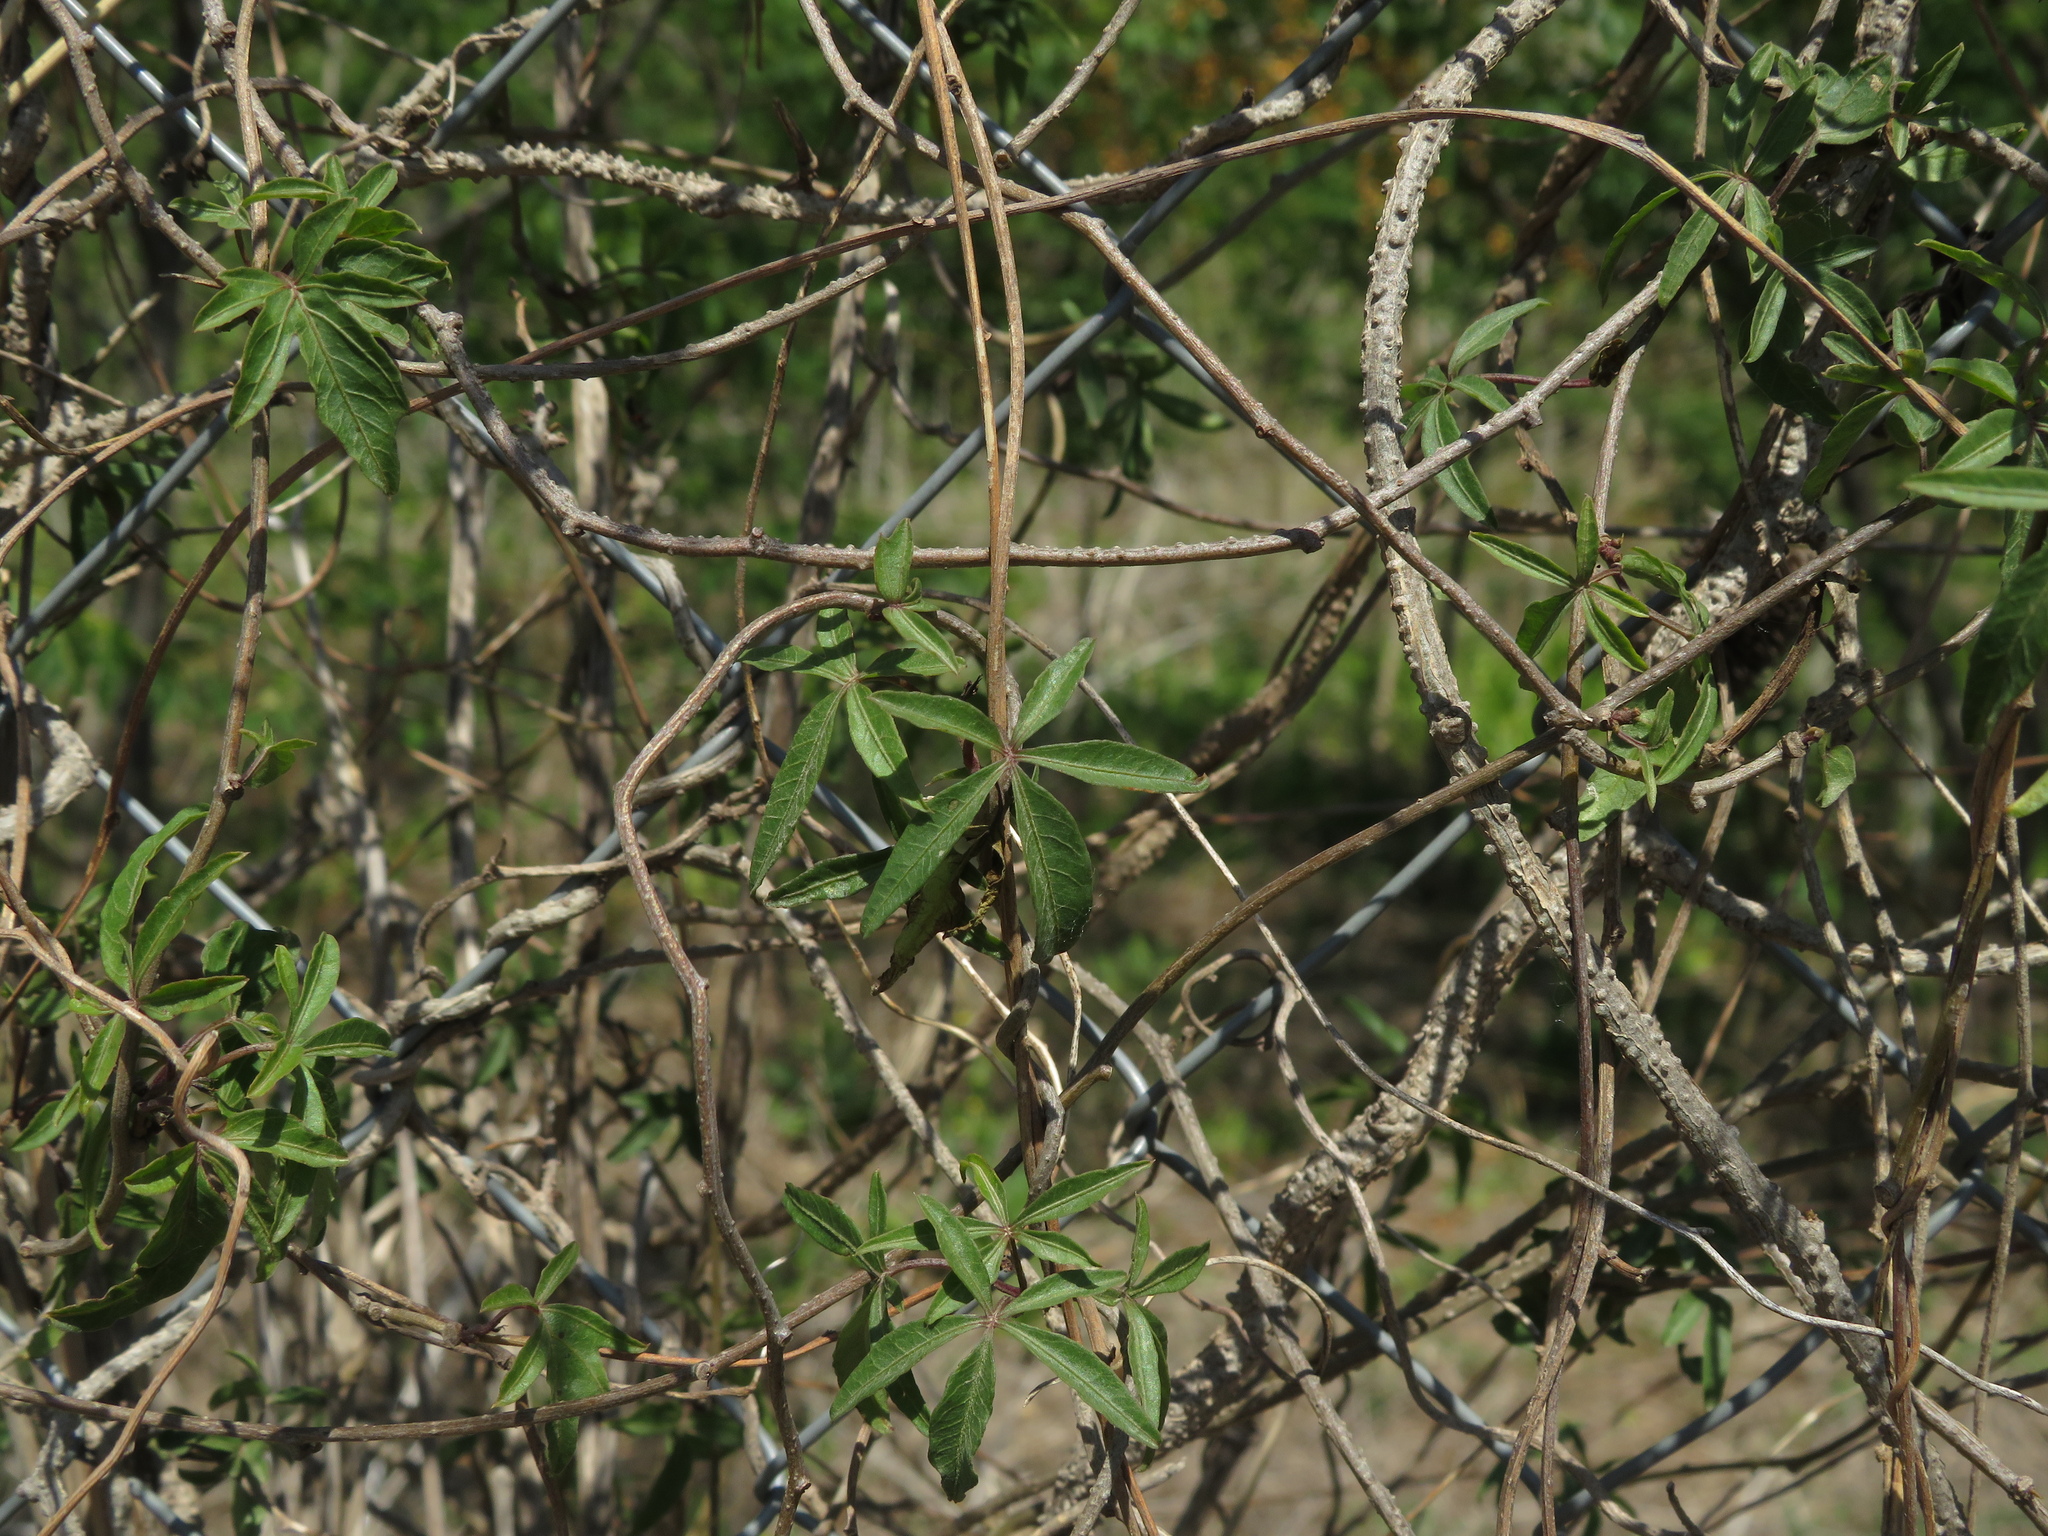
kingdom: Plantae
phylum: Tracheophyta
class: Magnoliopsida
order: Malpighiales
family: Passifloraceae
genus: Passiflora
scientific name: Passiflora caerulea
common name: Blue passionflower
